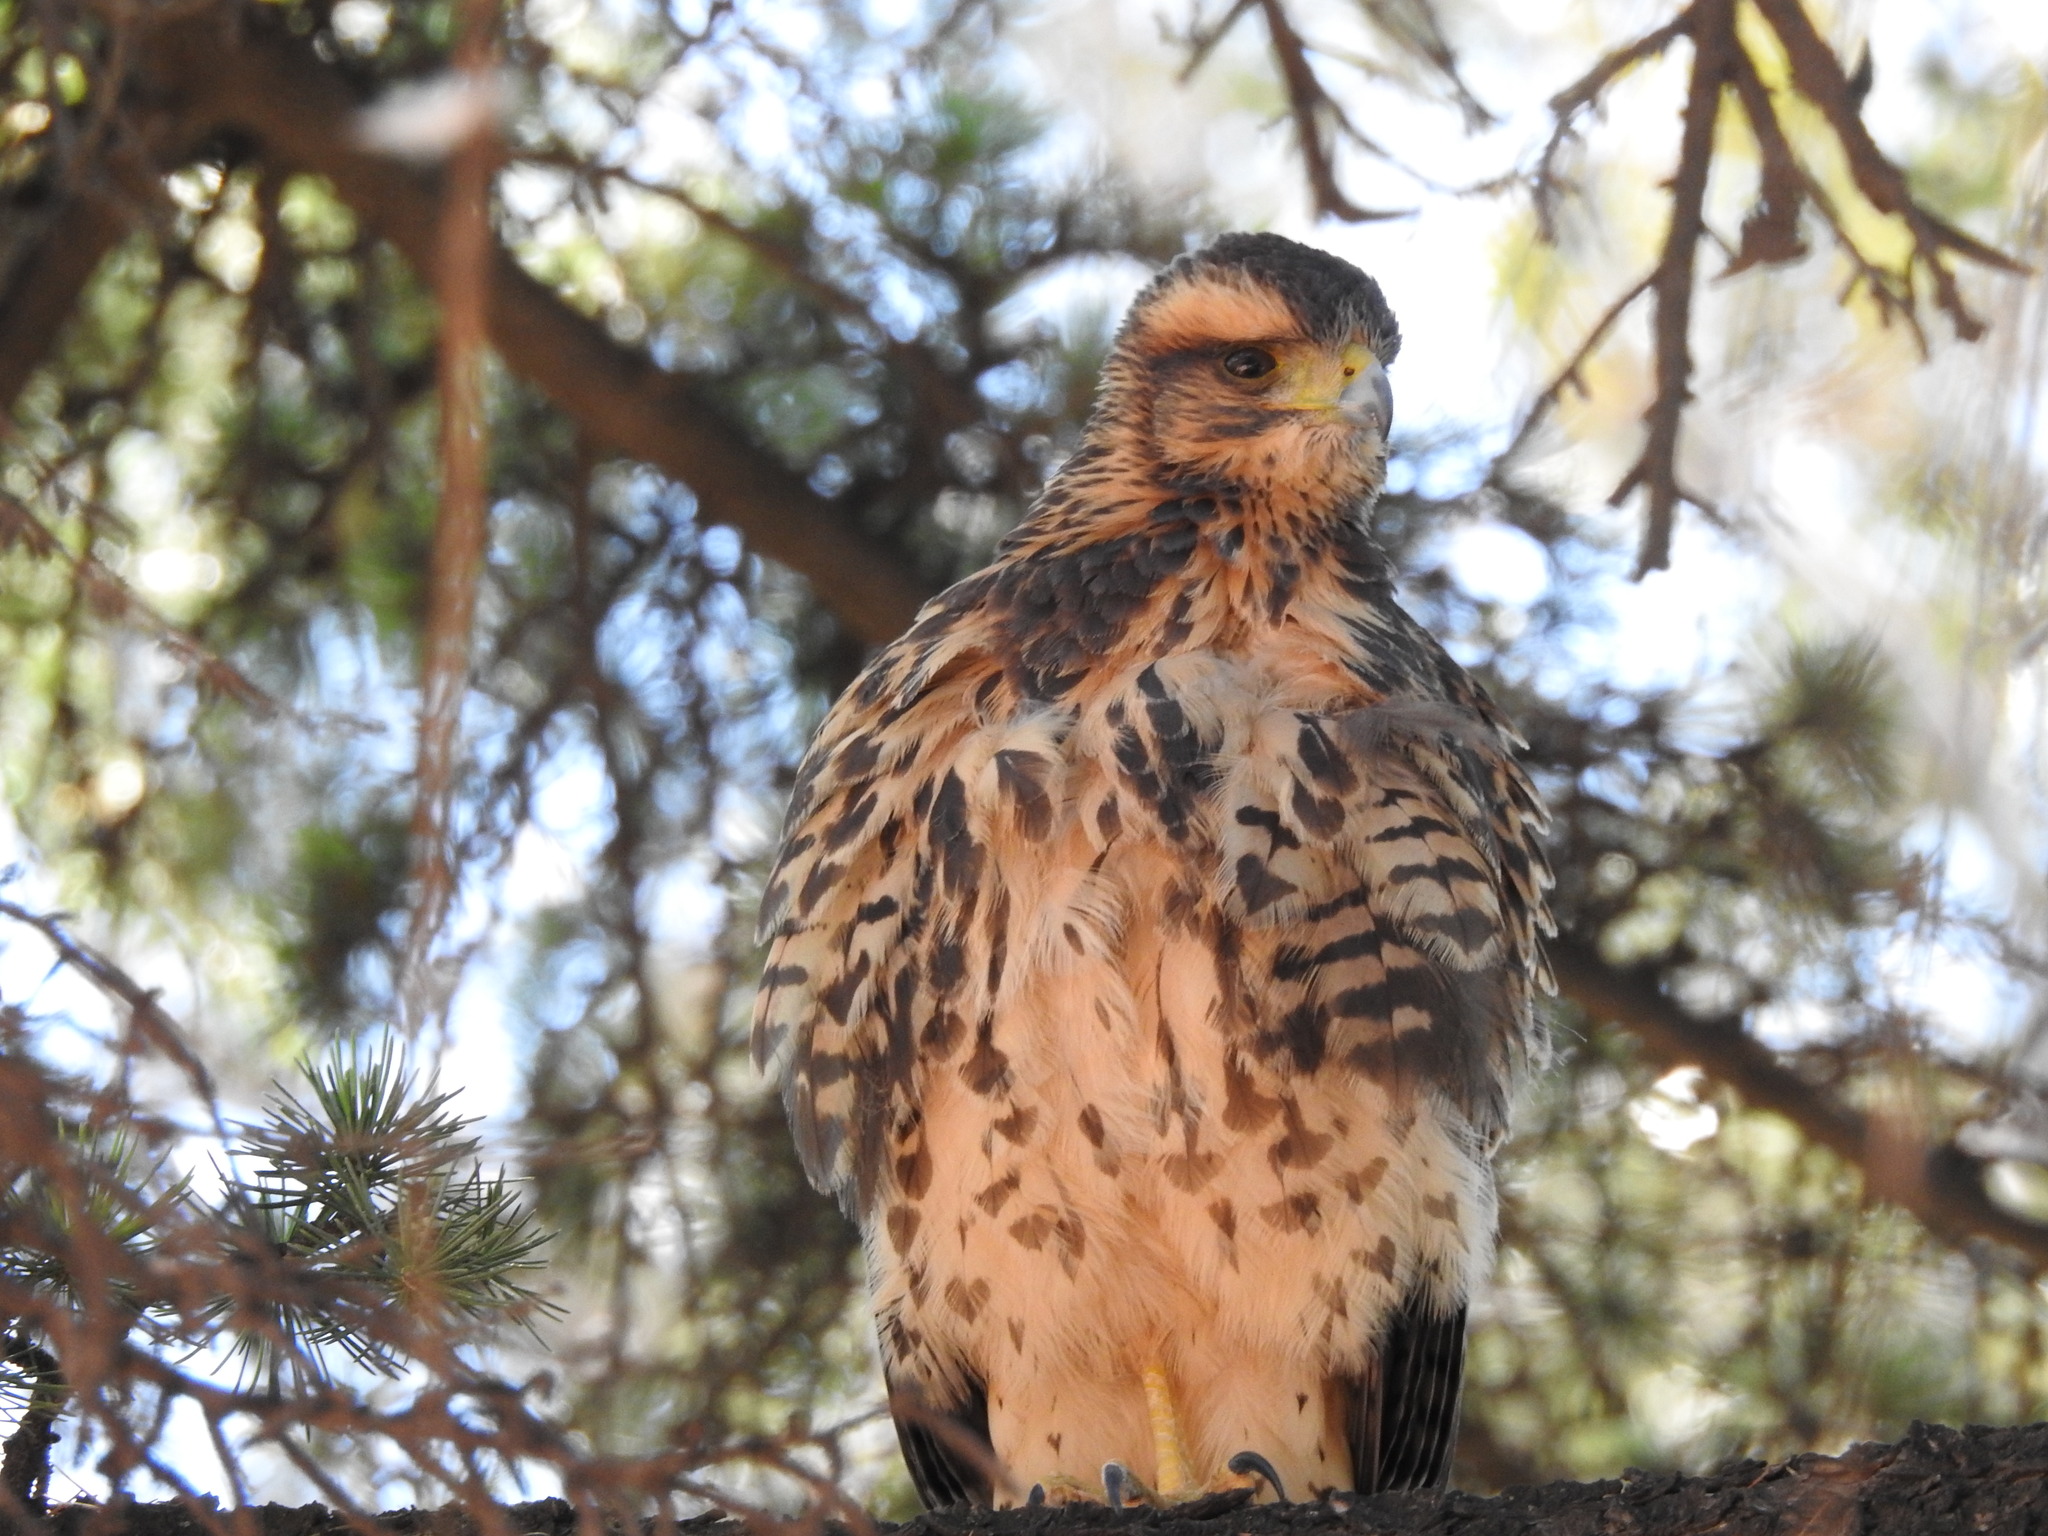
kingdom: Animalia
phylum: Chordata
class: Aves
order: Accipitriformes
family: Accipitridae
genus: Parabuteo
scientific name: Parabuteo unicinctus
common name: Harris's hawk
